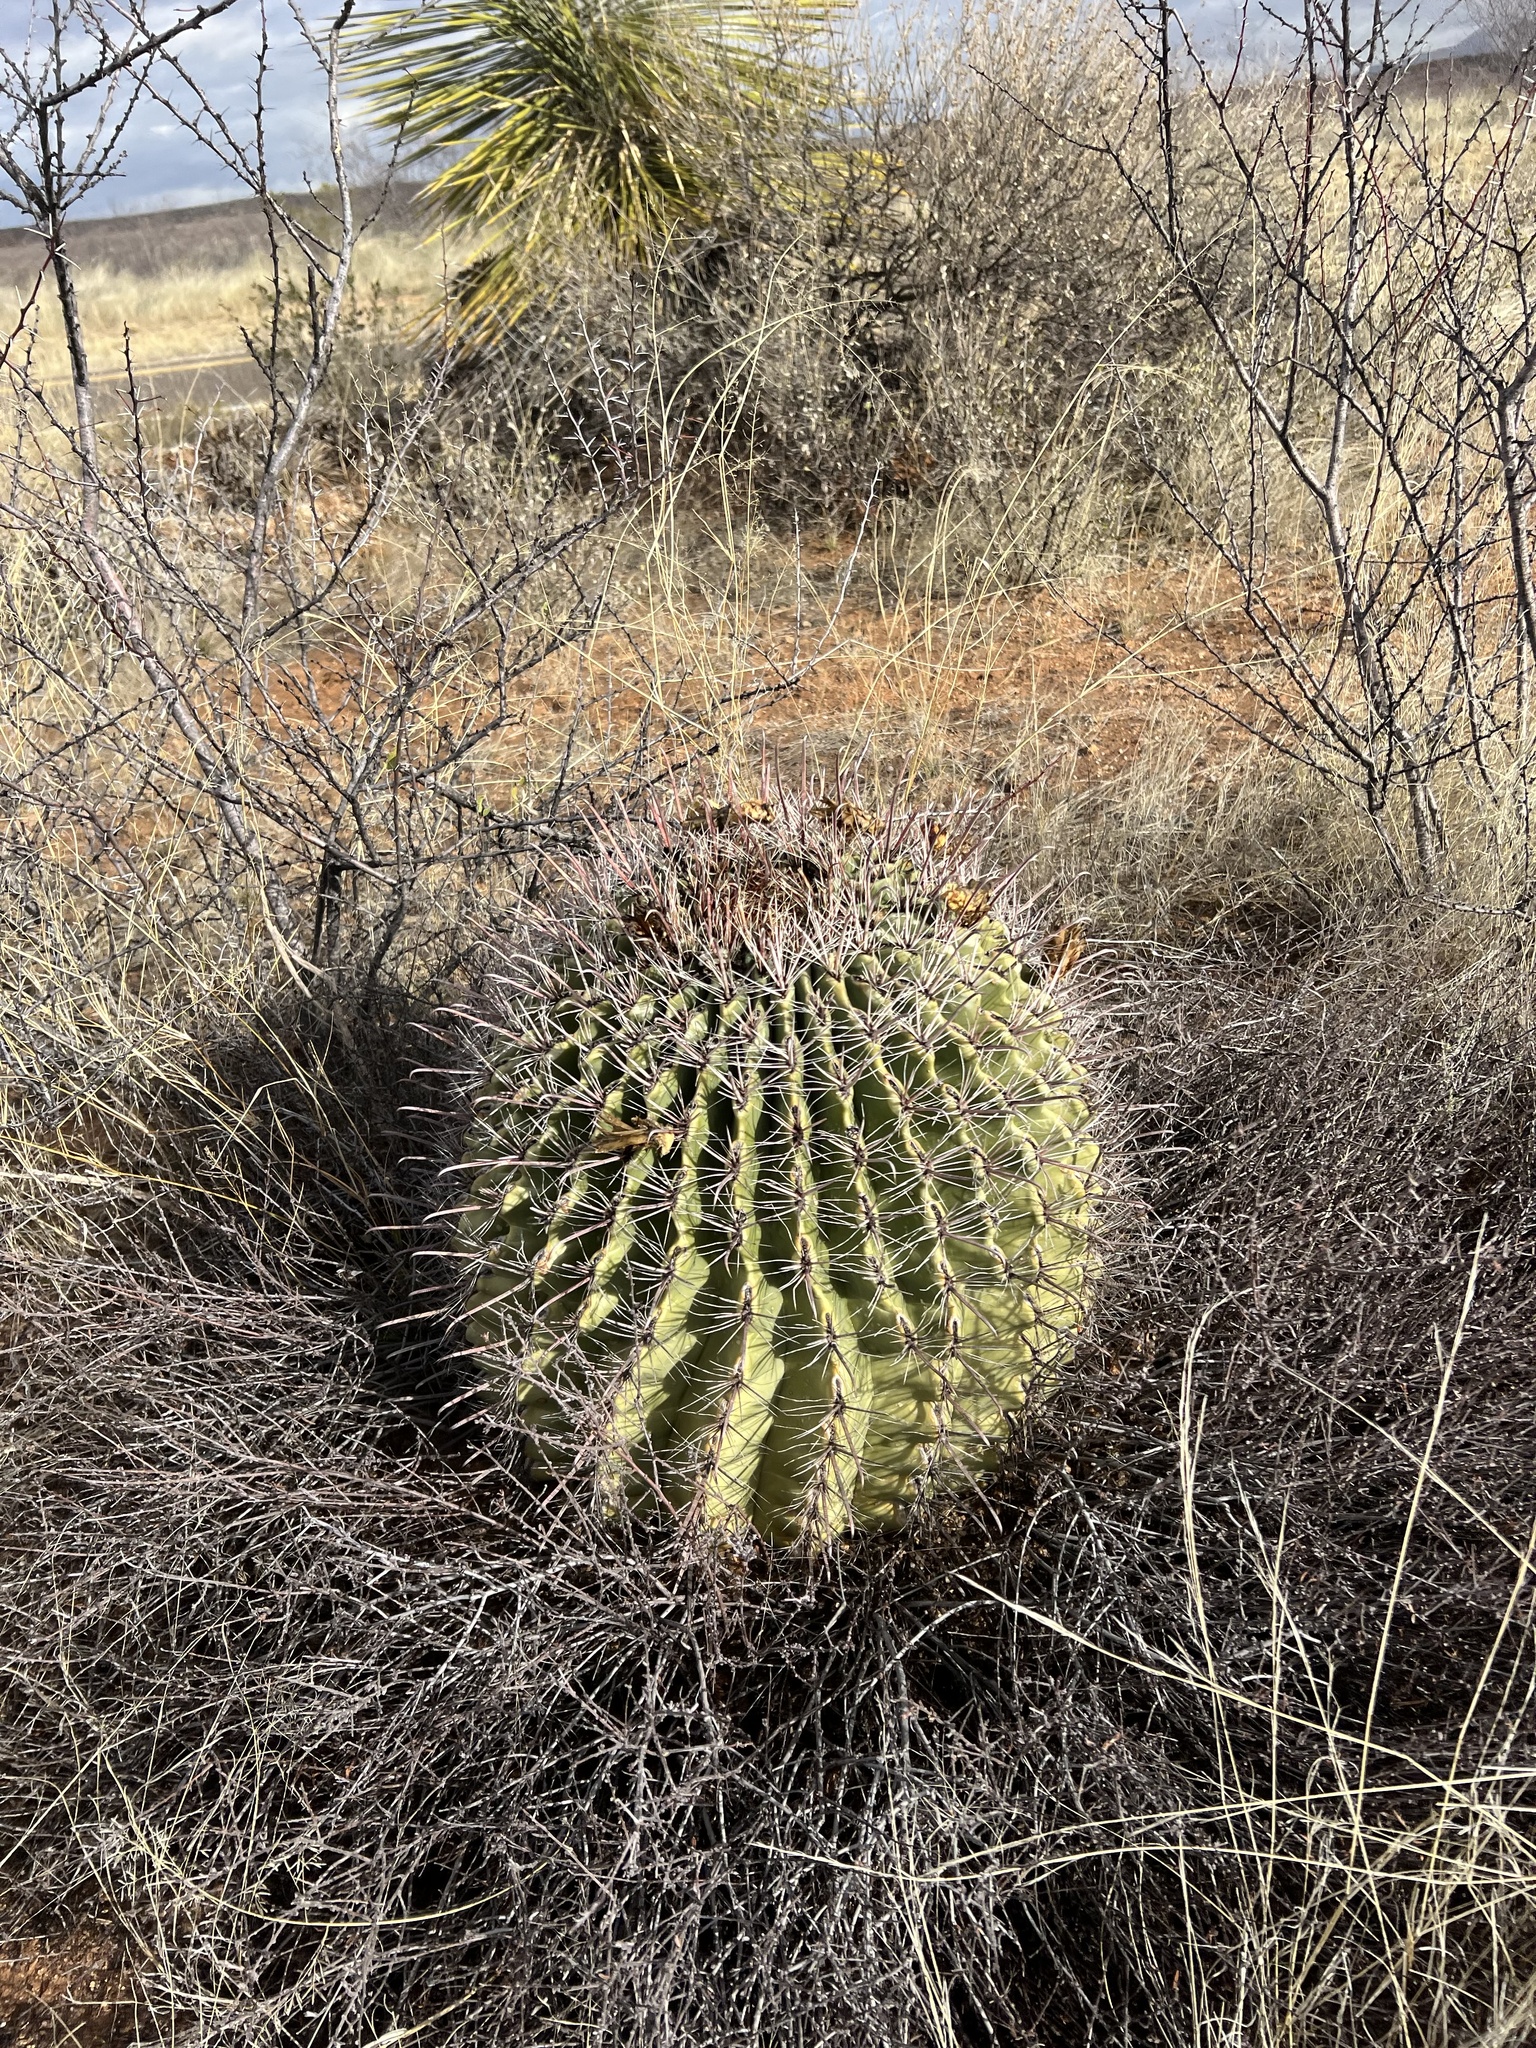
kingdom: Plantae
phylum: Tracheophyta
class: Magnoliopsida
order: Caryophyllales
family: Cactaceae
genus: Ferocactus
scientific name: Ferocactus wislizeni
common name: Candy barrel cactus
